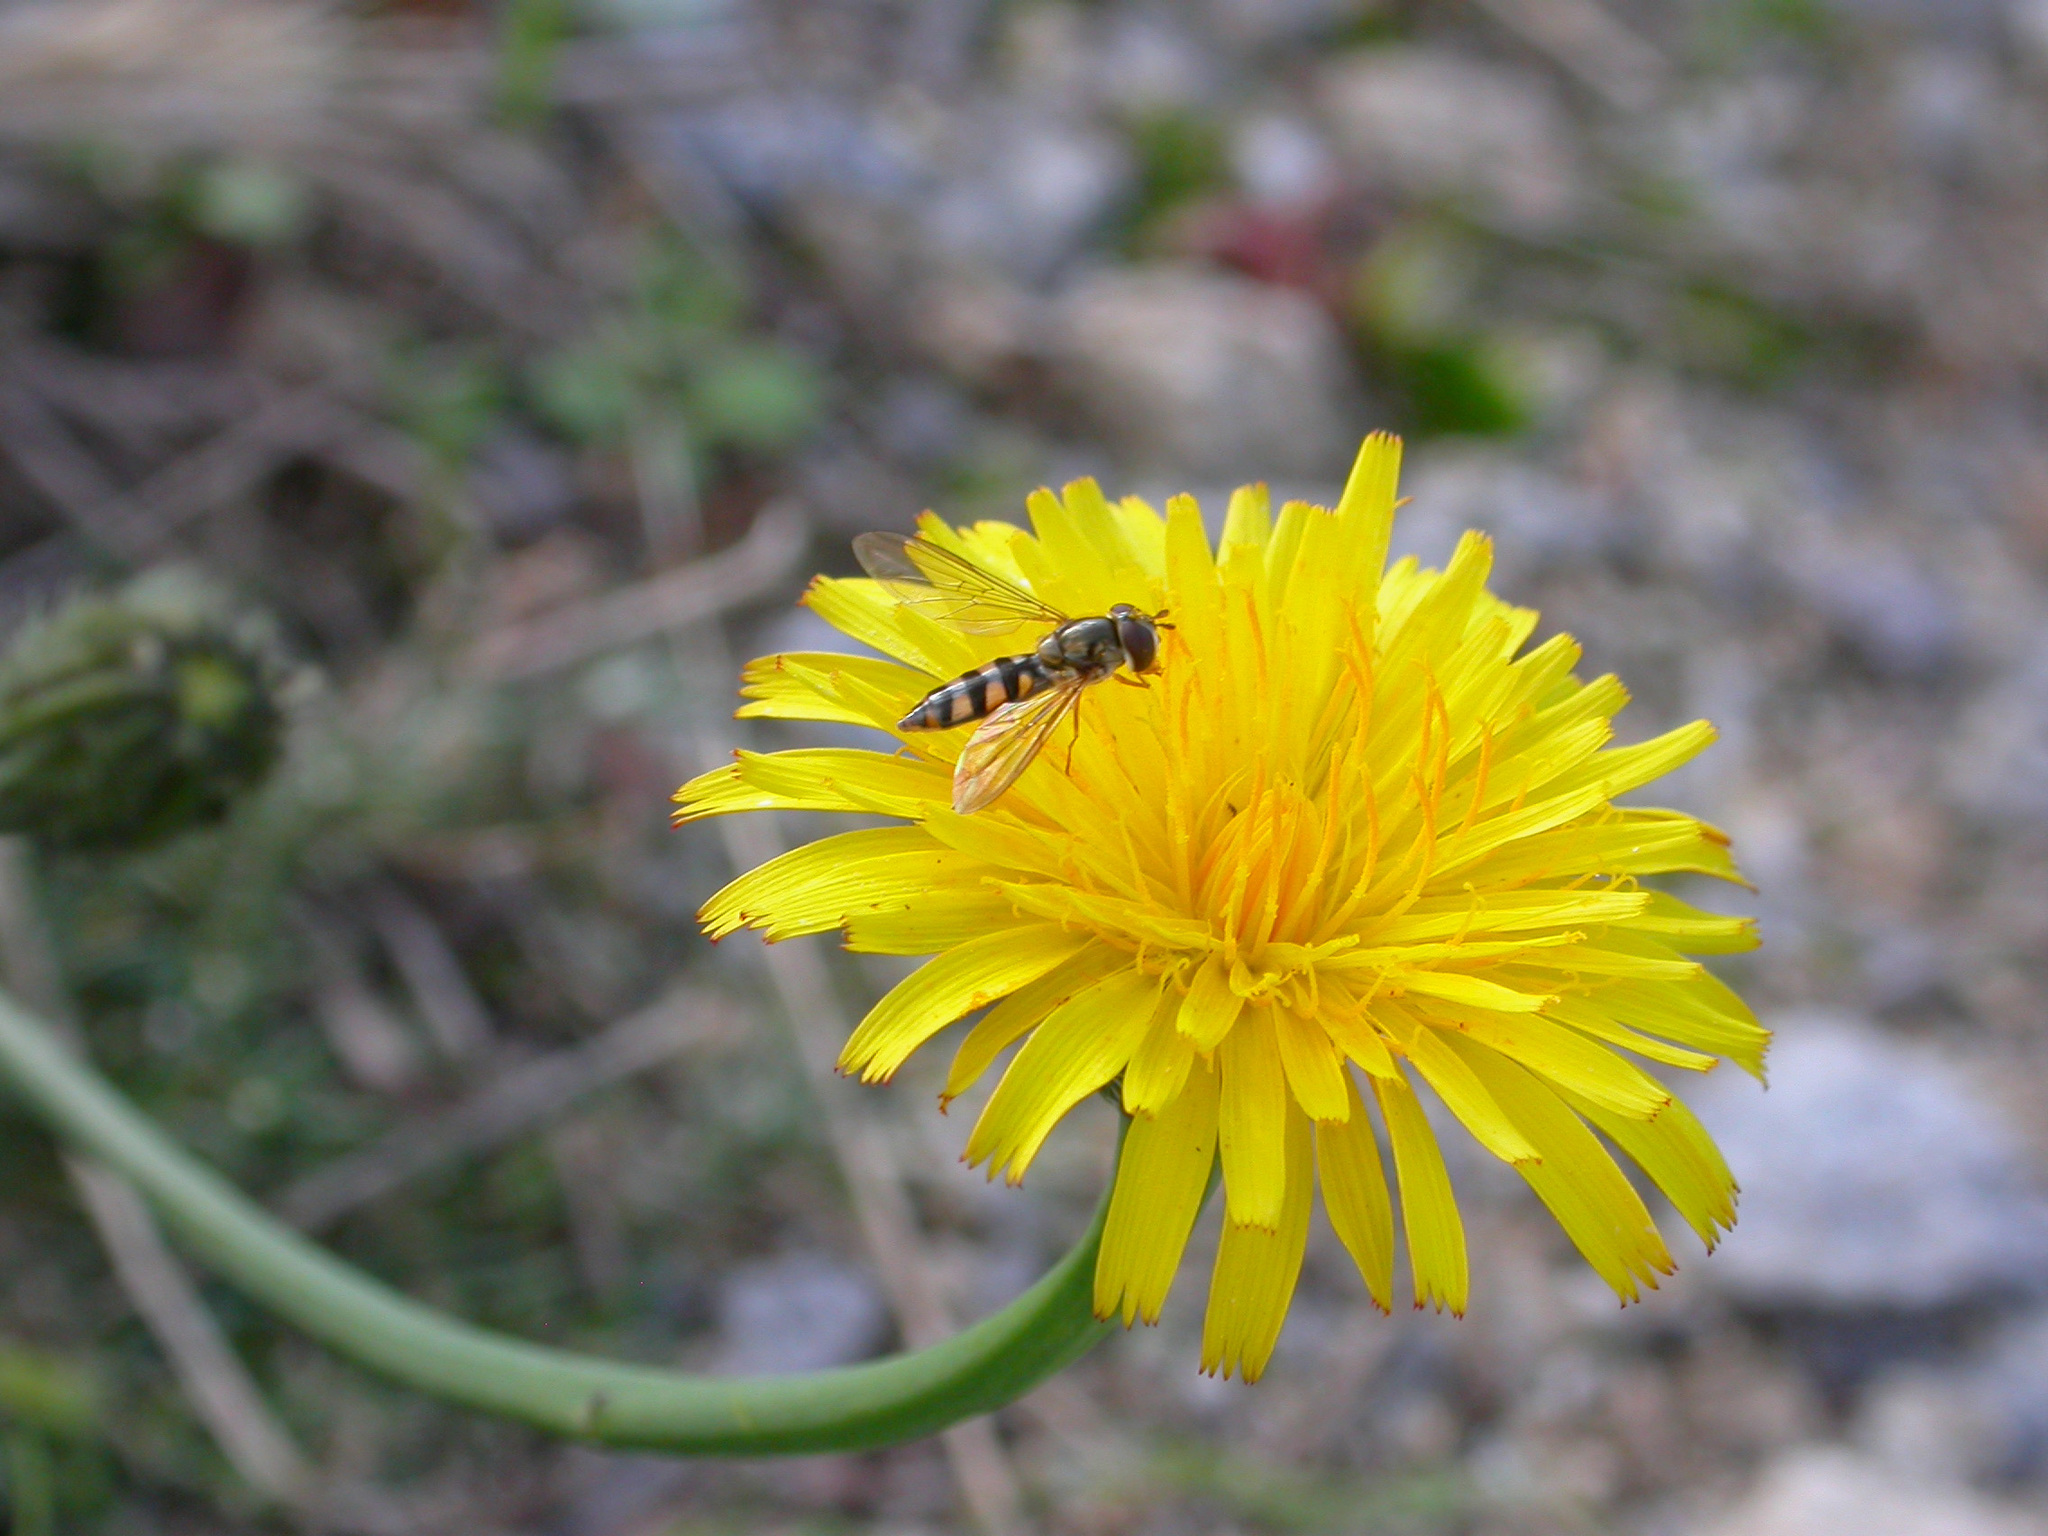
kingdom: Animalia
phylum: Arthropoda
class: Insecta
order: Diptera
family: Syrphidae
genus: Meliscaeva
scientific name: Meliscaeva auricollis
